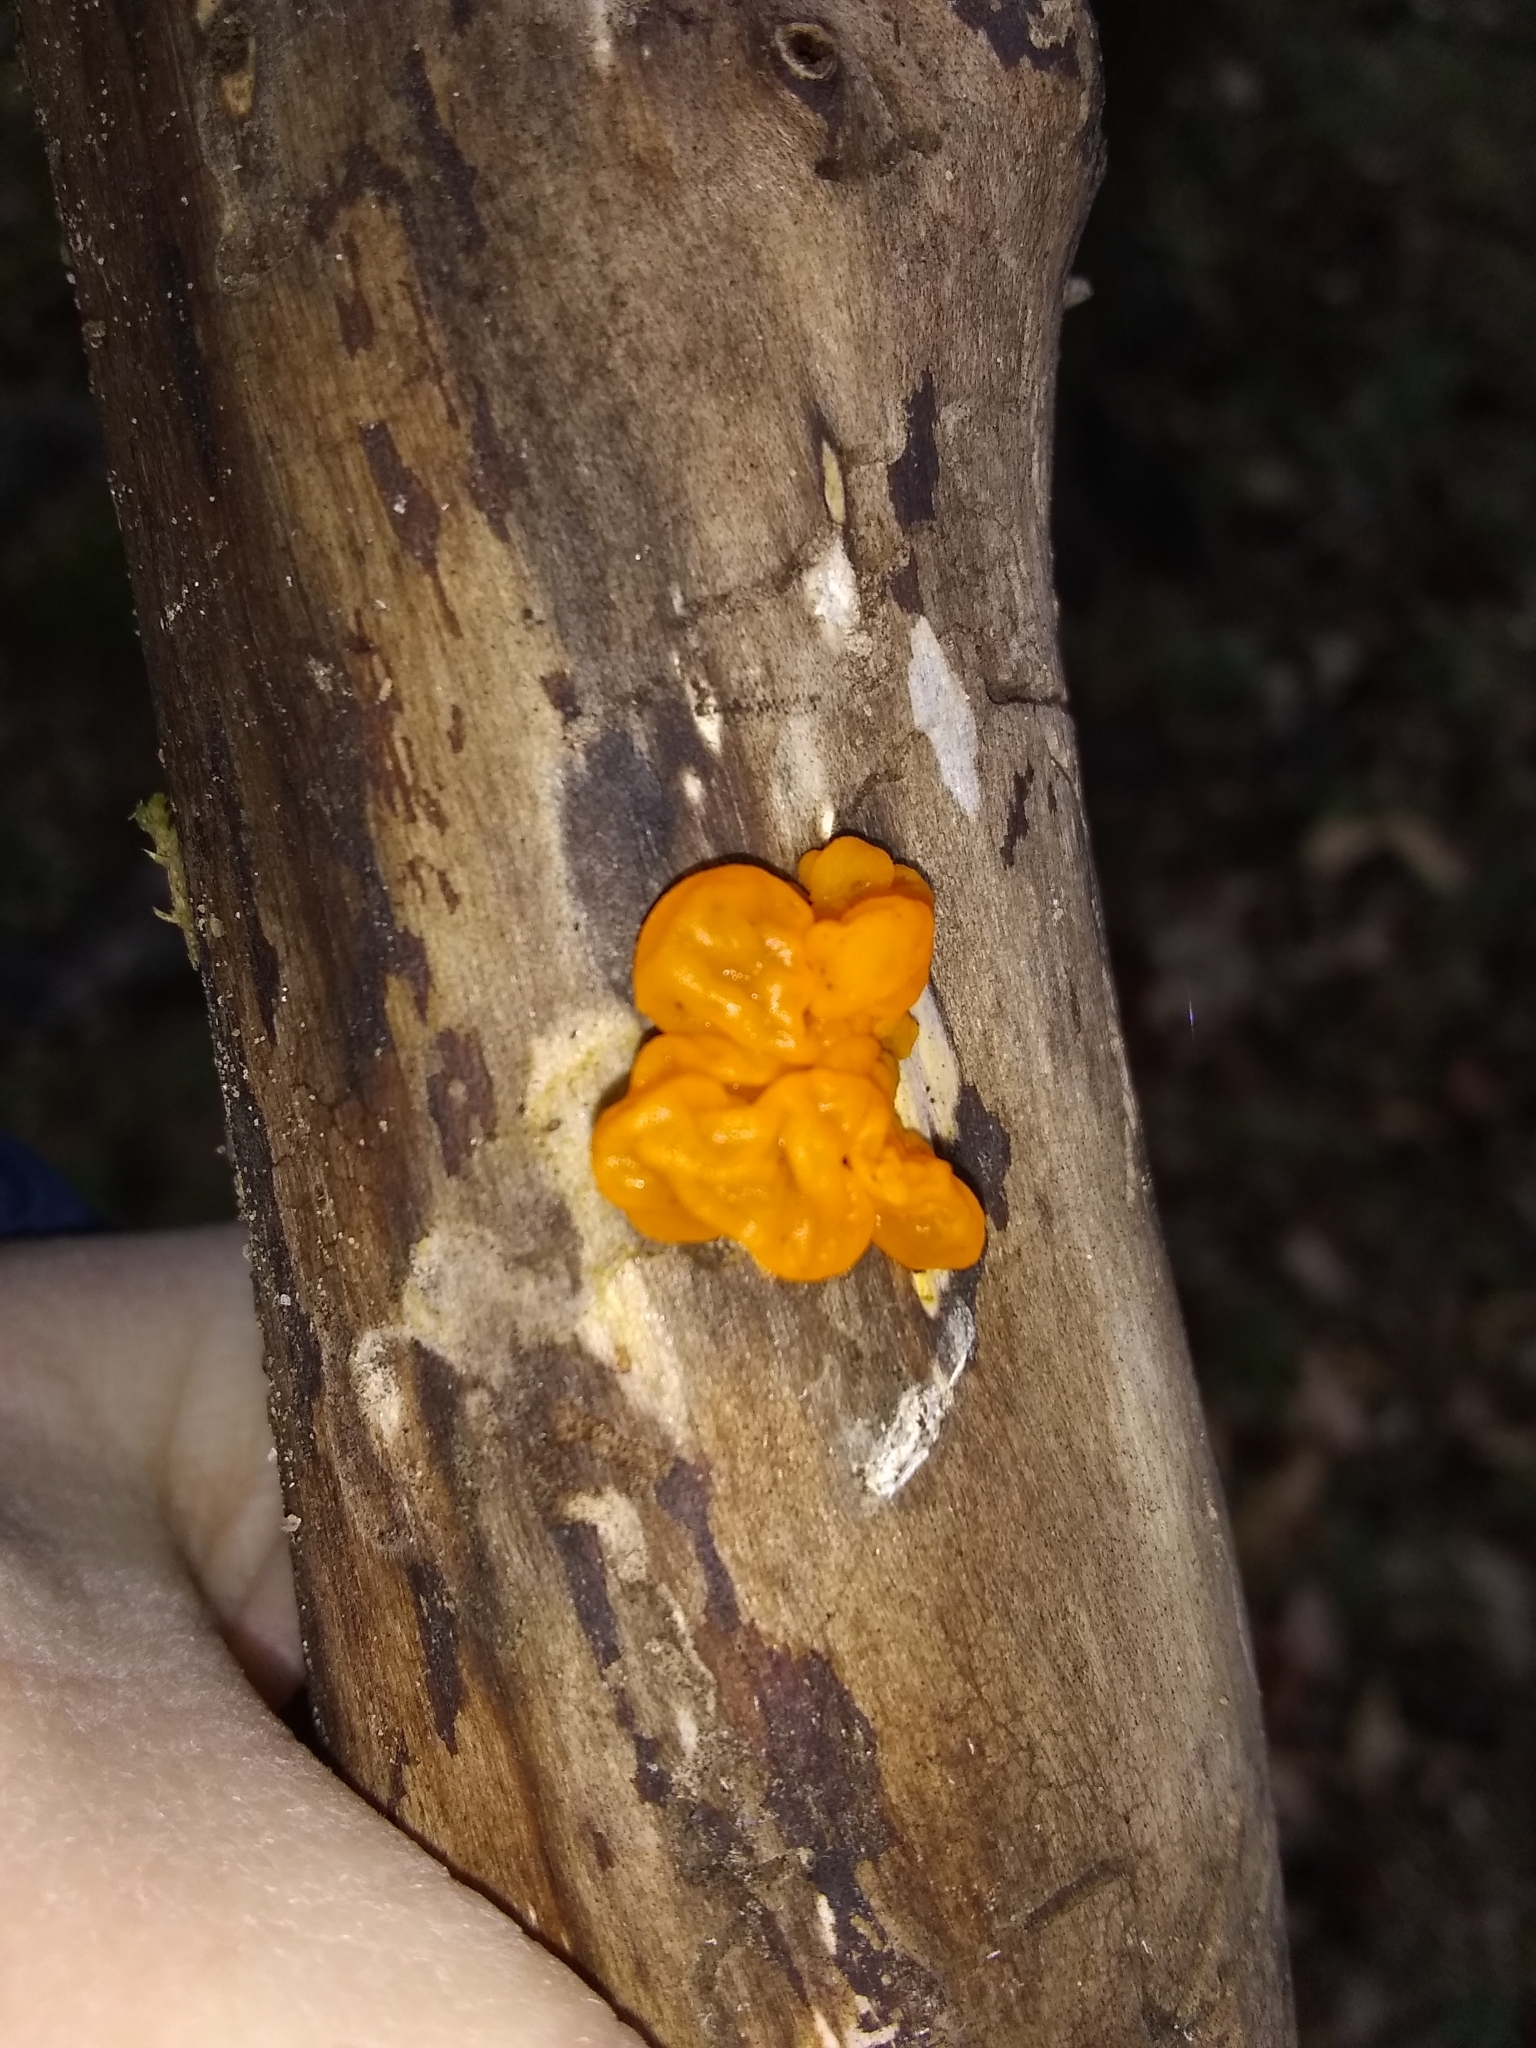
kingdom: Fungi
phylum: Basidiomycota
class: Dacrymycetes
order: Dacrymycetales
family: Dacrymycetaceae
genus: Dacrymyces
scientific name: Dacrymyces chrysospermus
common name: Orange jelly spot
